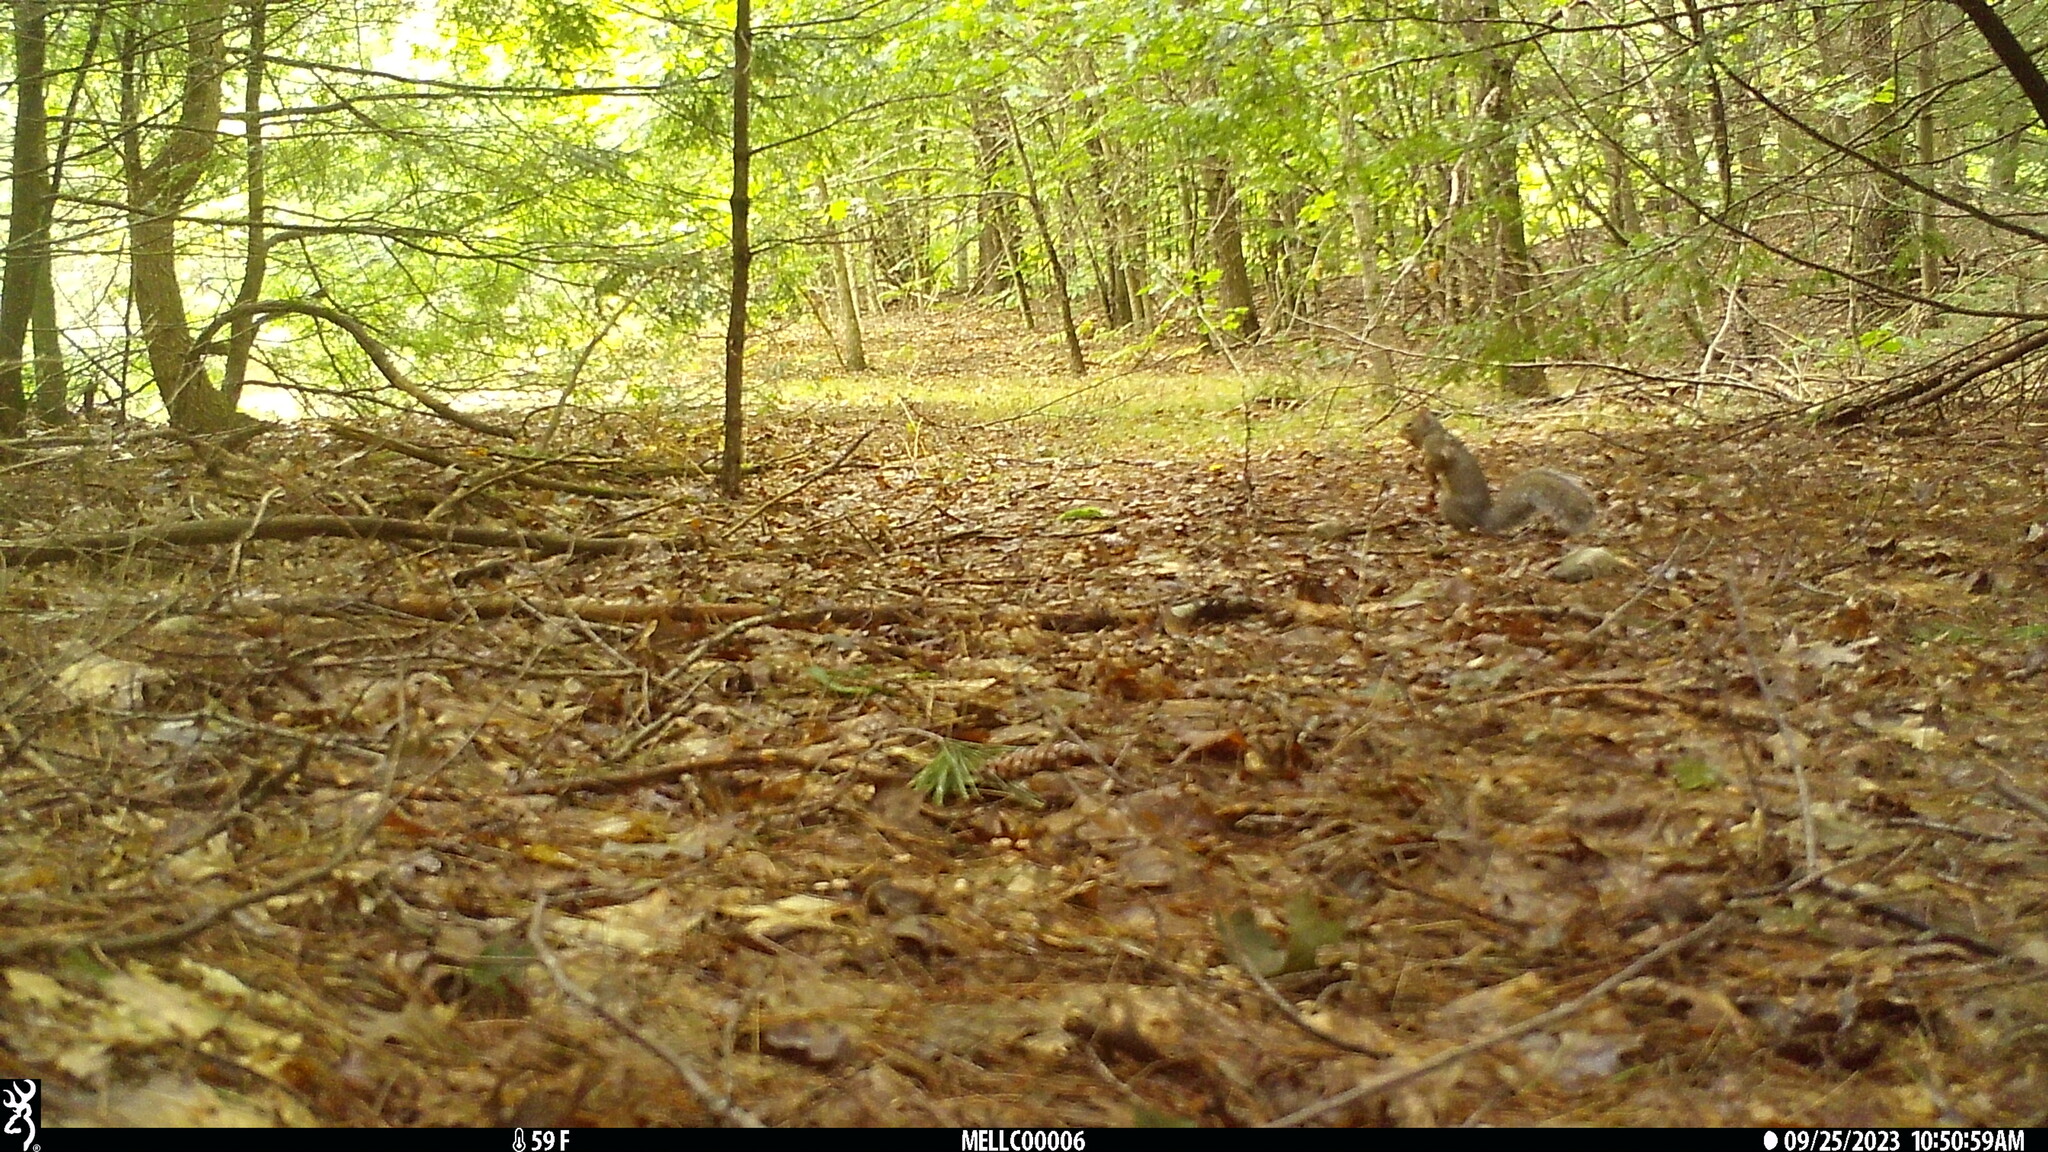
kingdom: Animalia
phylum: Chordata
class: Mammalia
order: Rodentia
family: Sciuridae
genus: Sciurus
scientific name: Sciurus carolinensis
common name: Eastern gray squirrel
